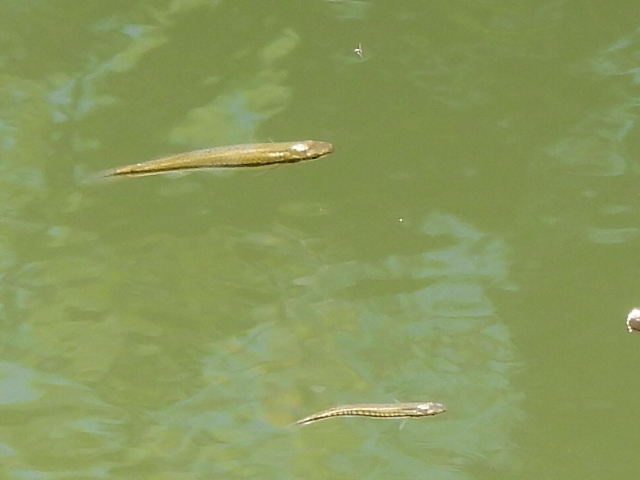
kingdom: Animalia
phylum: Chordata
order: Cyprinodontiformes
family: Fundulidae
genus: Fundulus
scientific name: Fundulus notatus
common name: Blackstripe topminnow
